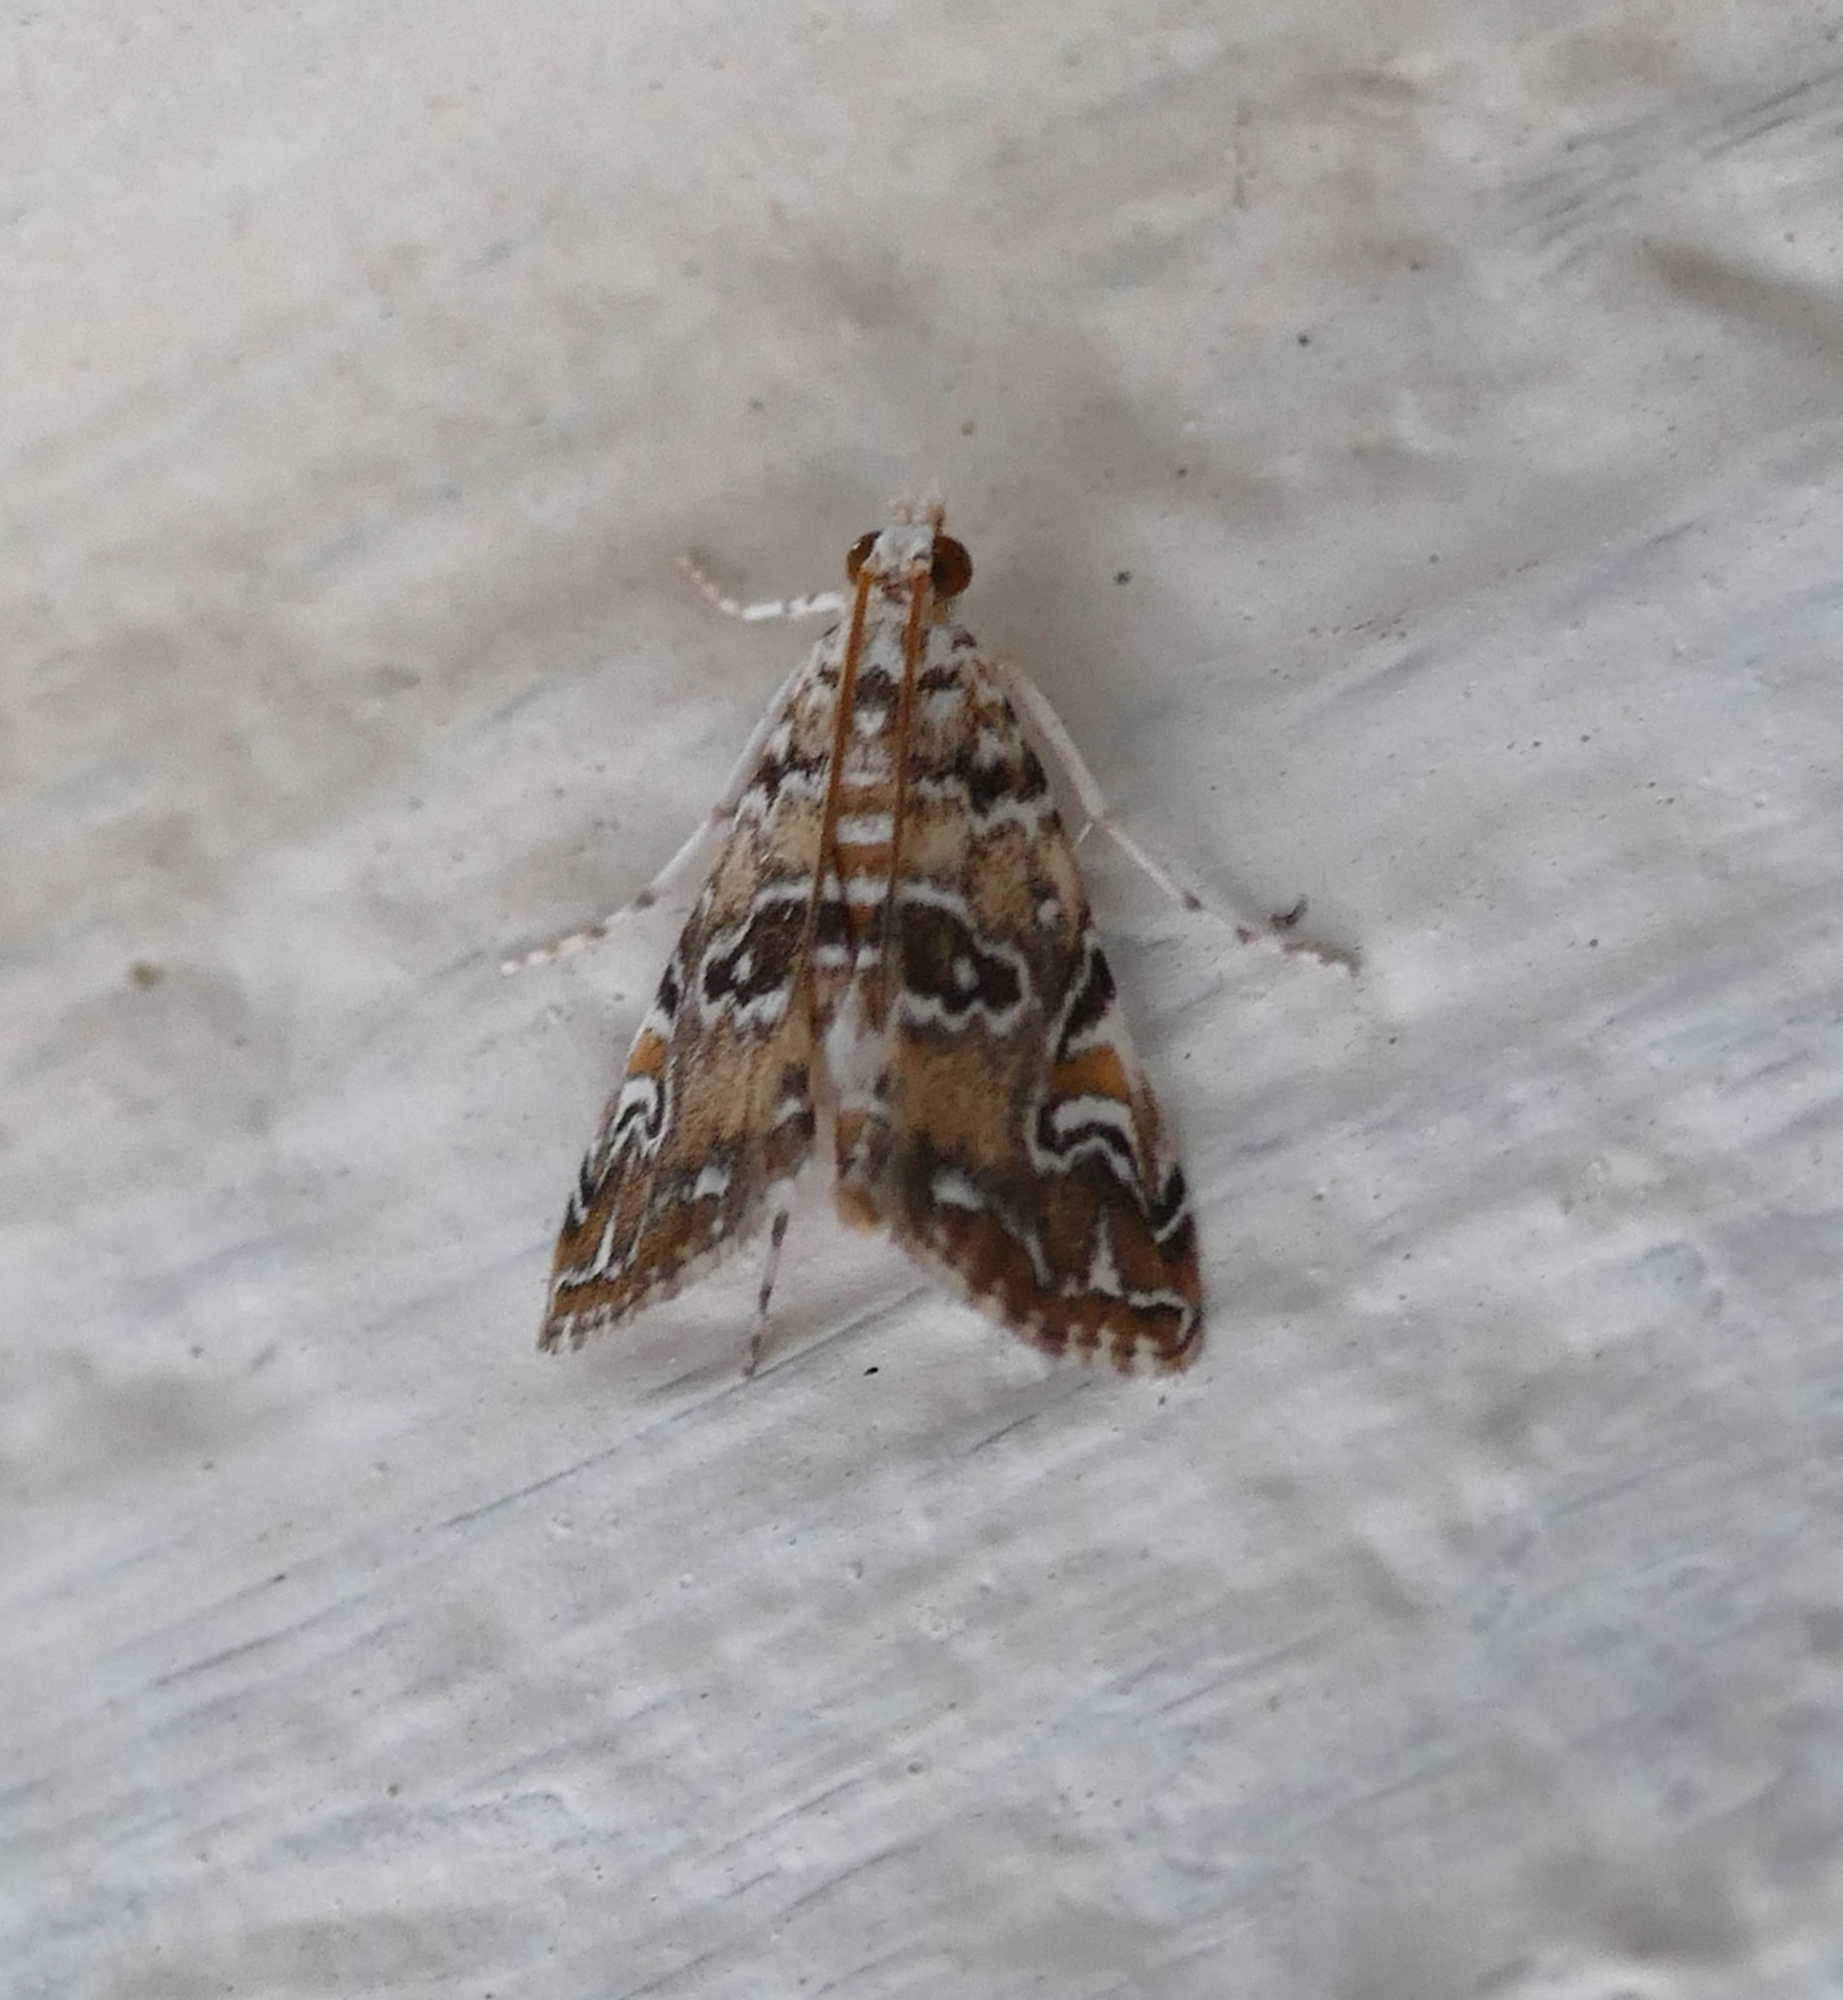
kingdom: Animalia
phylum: Arthropoda
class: Insecta
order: Lepidoptera
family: Crambidae
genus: Elophila
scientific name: Elophila gyralis
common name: Waterlily borer moth
